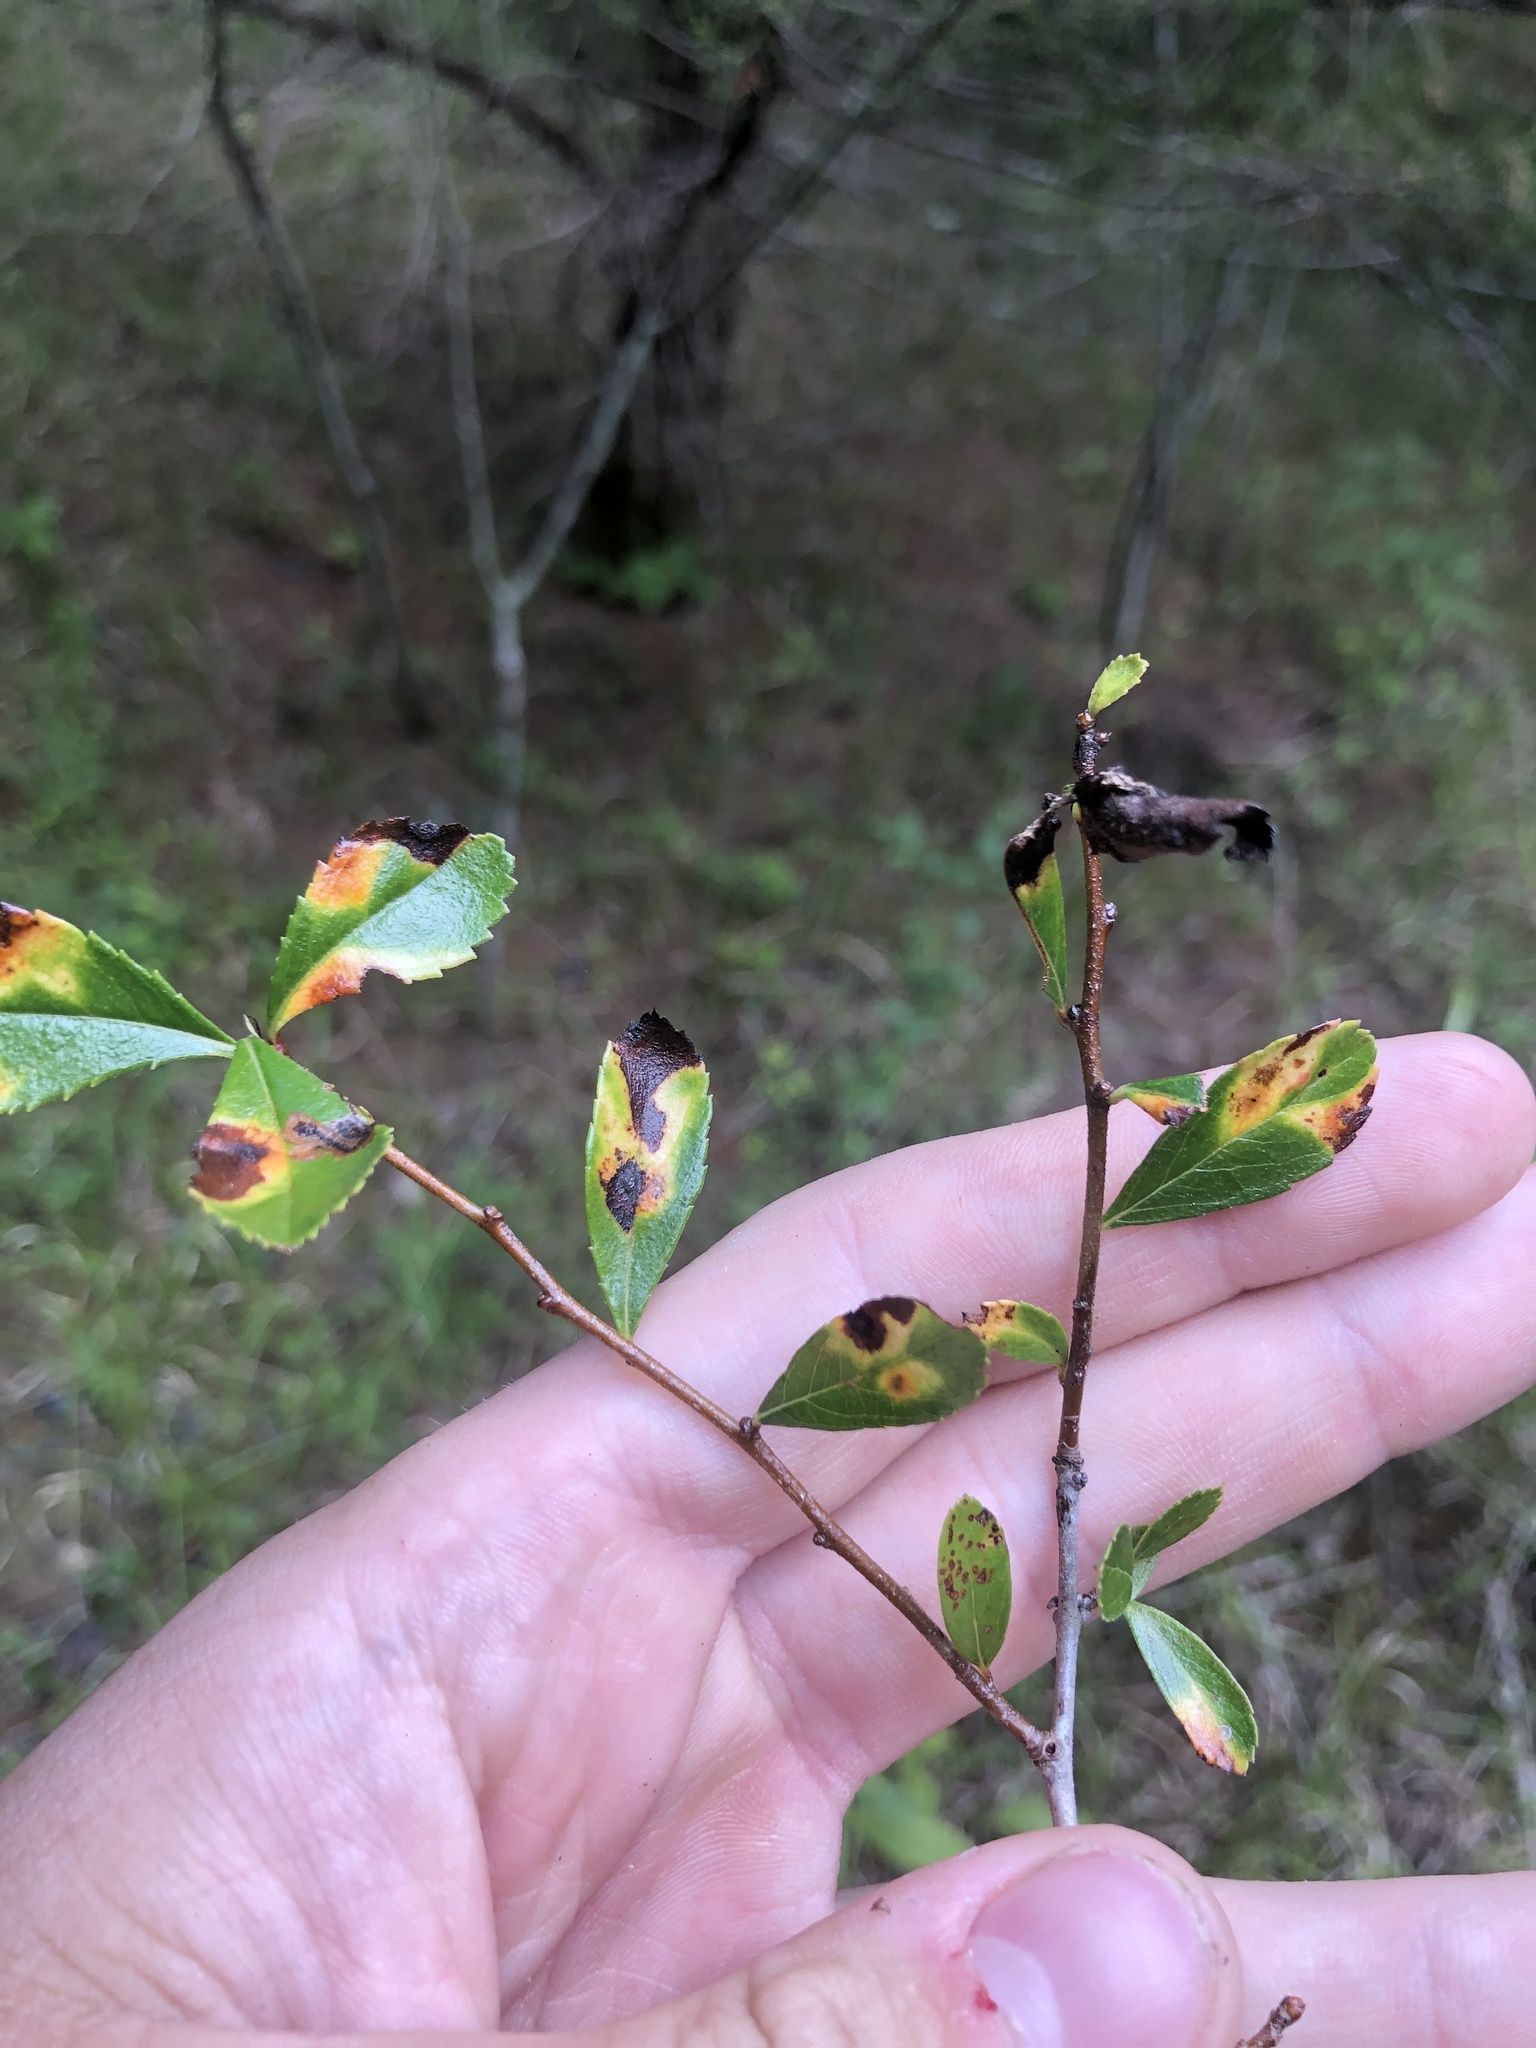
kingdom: Plantae
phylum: Tracheophyta
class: Magnoliopsida
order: Rosales
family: Rosaceae
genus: Crataegus
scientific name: Crataegus berberifolia
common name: Barberry hawthorn
